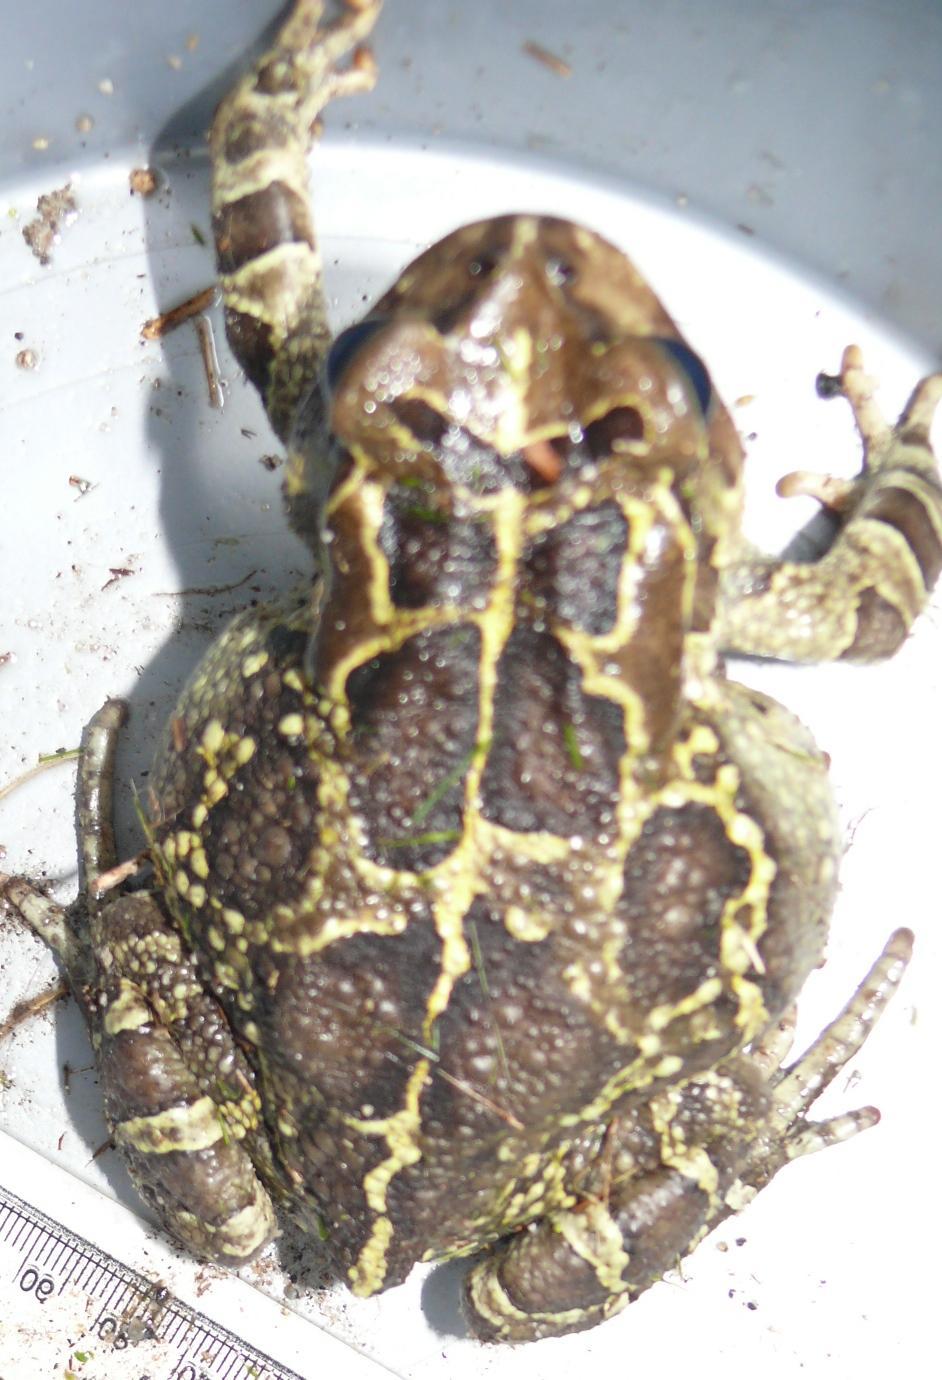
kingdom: Animalia
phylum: Chordata
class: Amphibia
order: Anura
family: Bufonidae
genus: Sclerophrys
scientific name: Sclerophrys pantherina
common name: Panther toad
